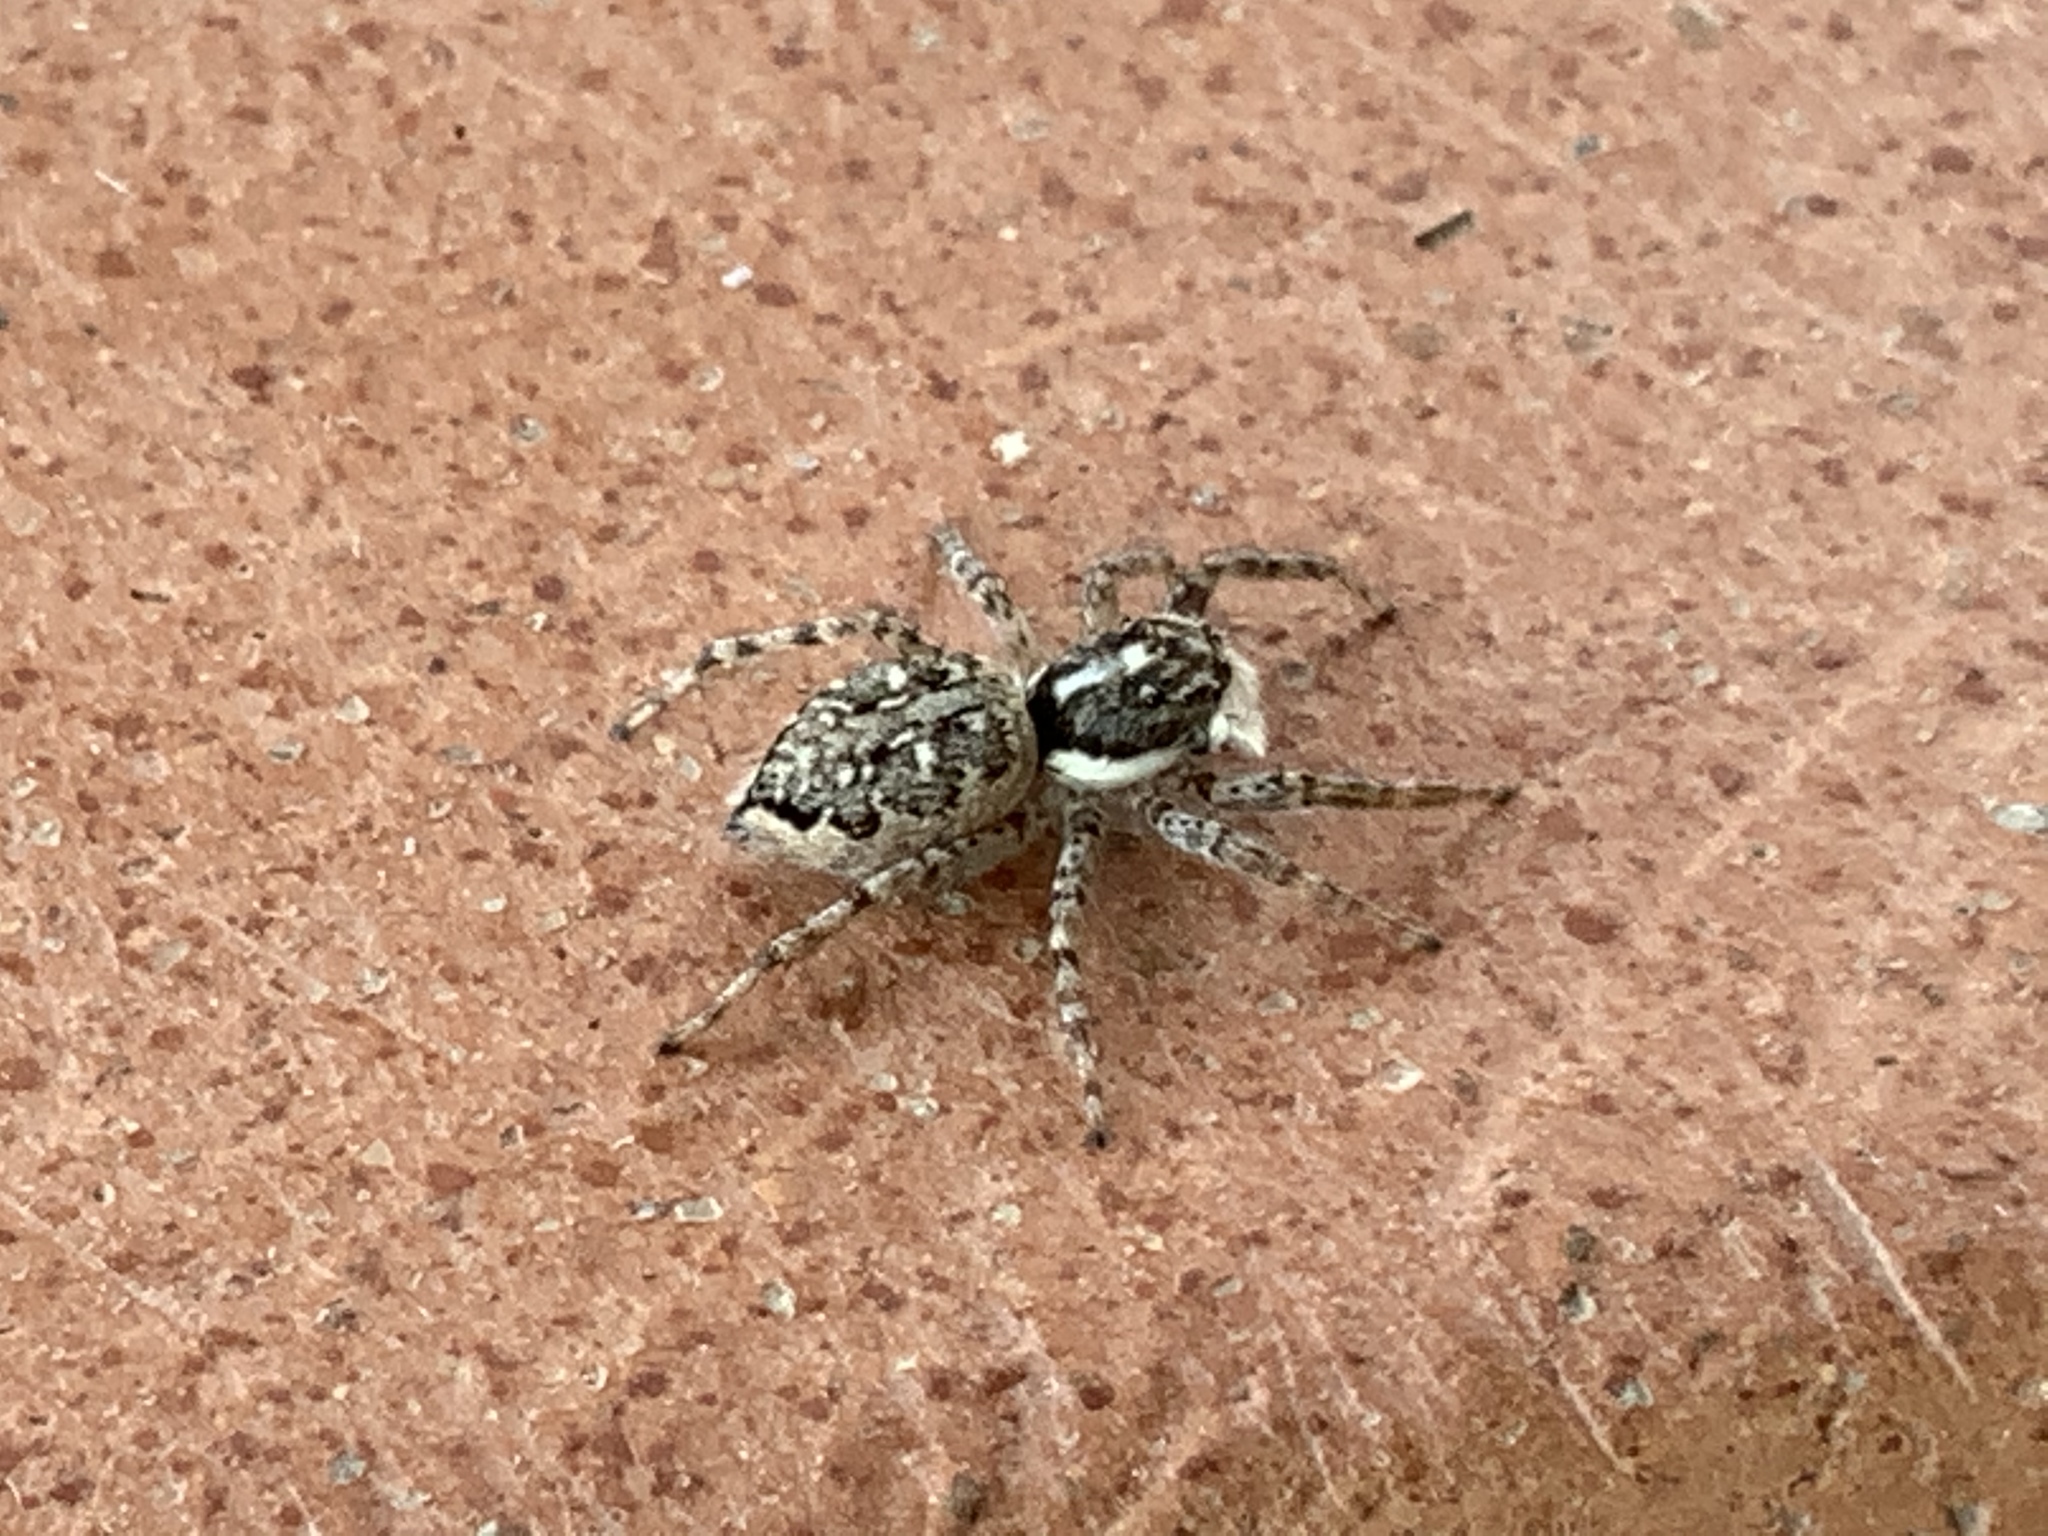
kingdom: Animalia
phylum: Arthropoda
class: Arachnida
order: Araneae
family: Salticidae
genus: Menemerus
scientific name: Menemerus semilimbatus
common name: Jumping spider
